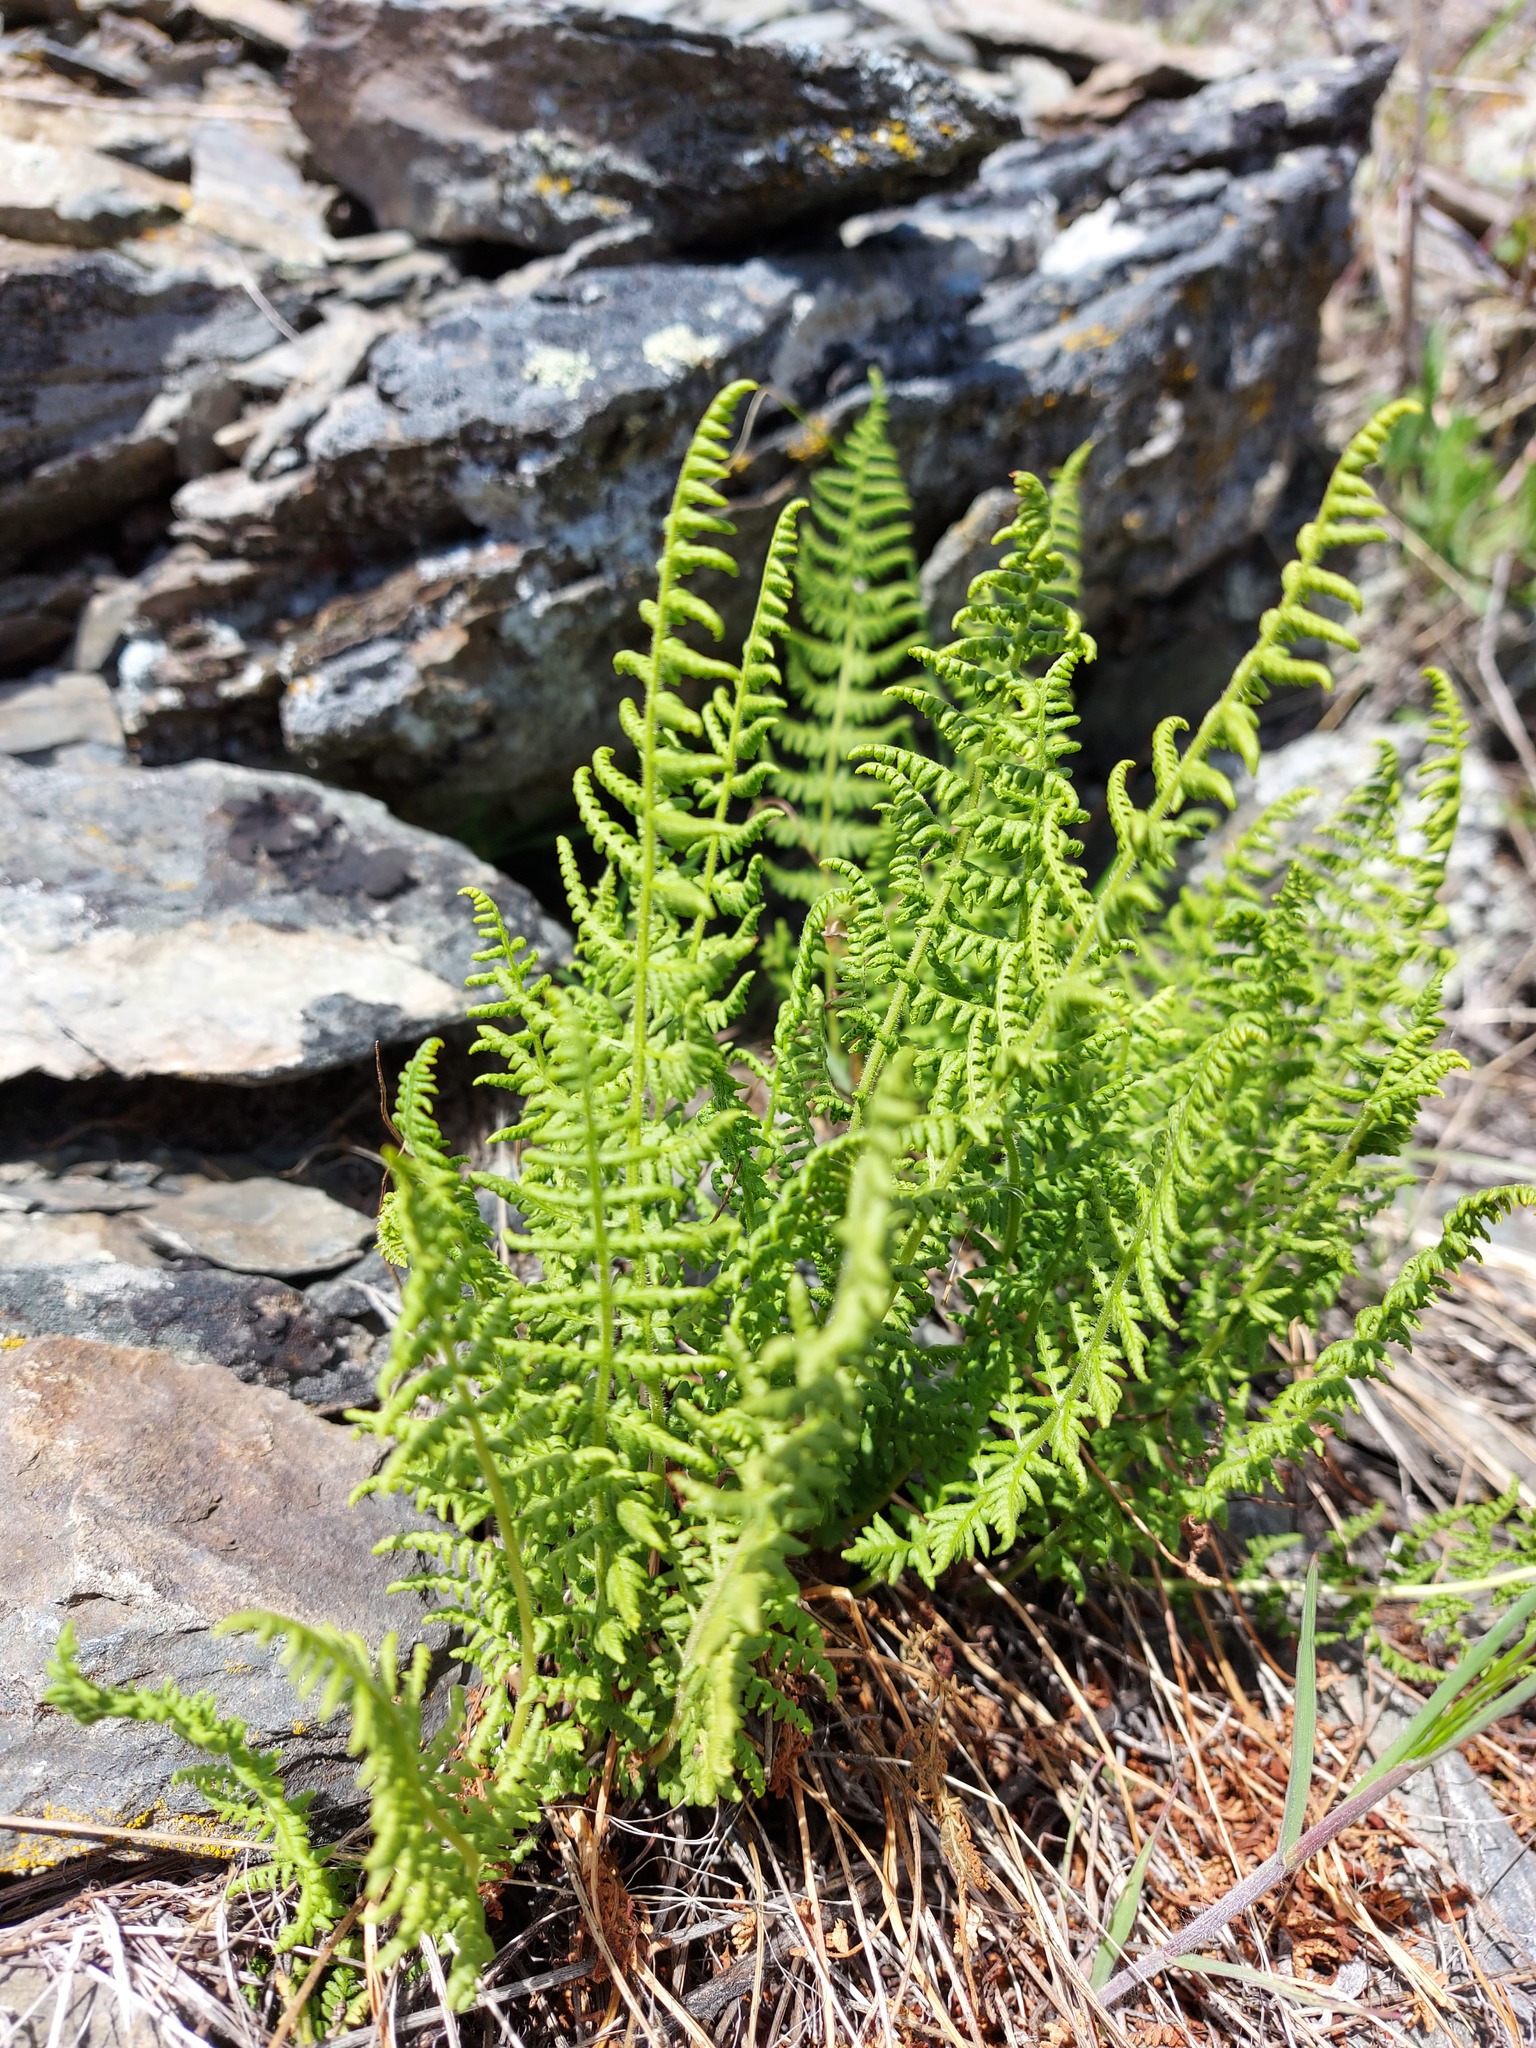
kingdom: Plantae
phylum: Tracheophyta
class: Polypodiopsida
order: Polypodiales
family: Woodsiaceae
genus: Physematium
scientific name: Physematium scopulinum
